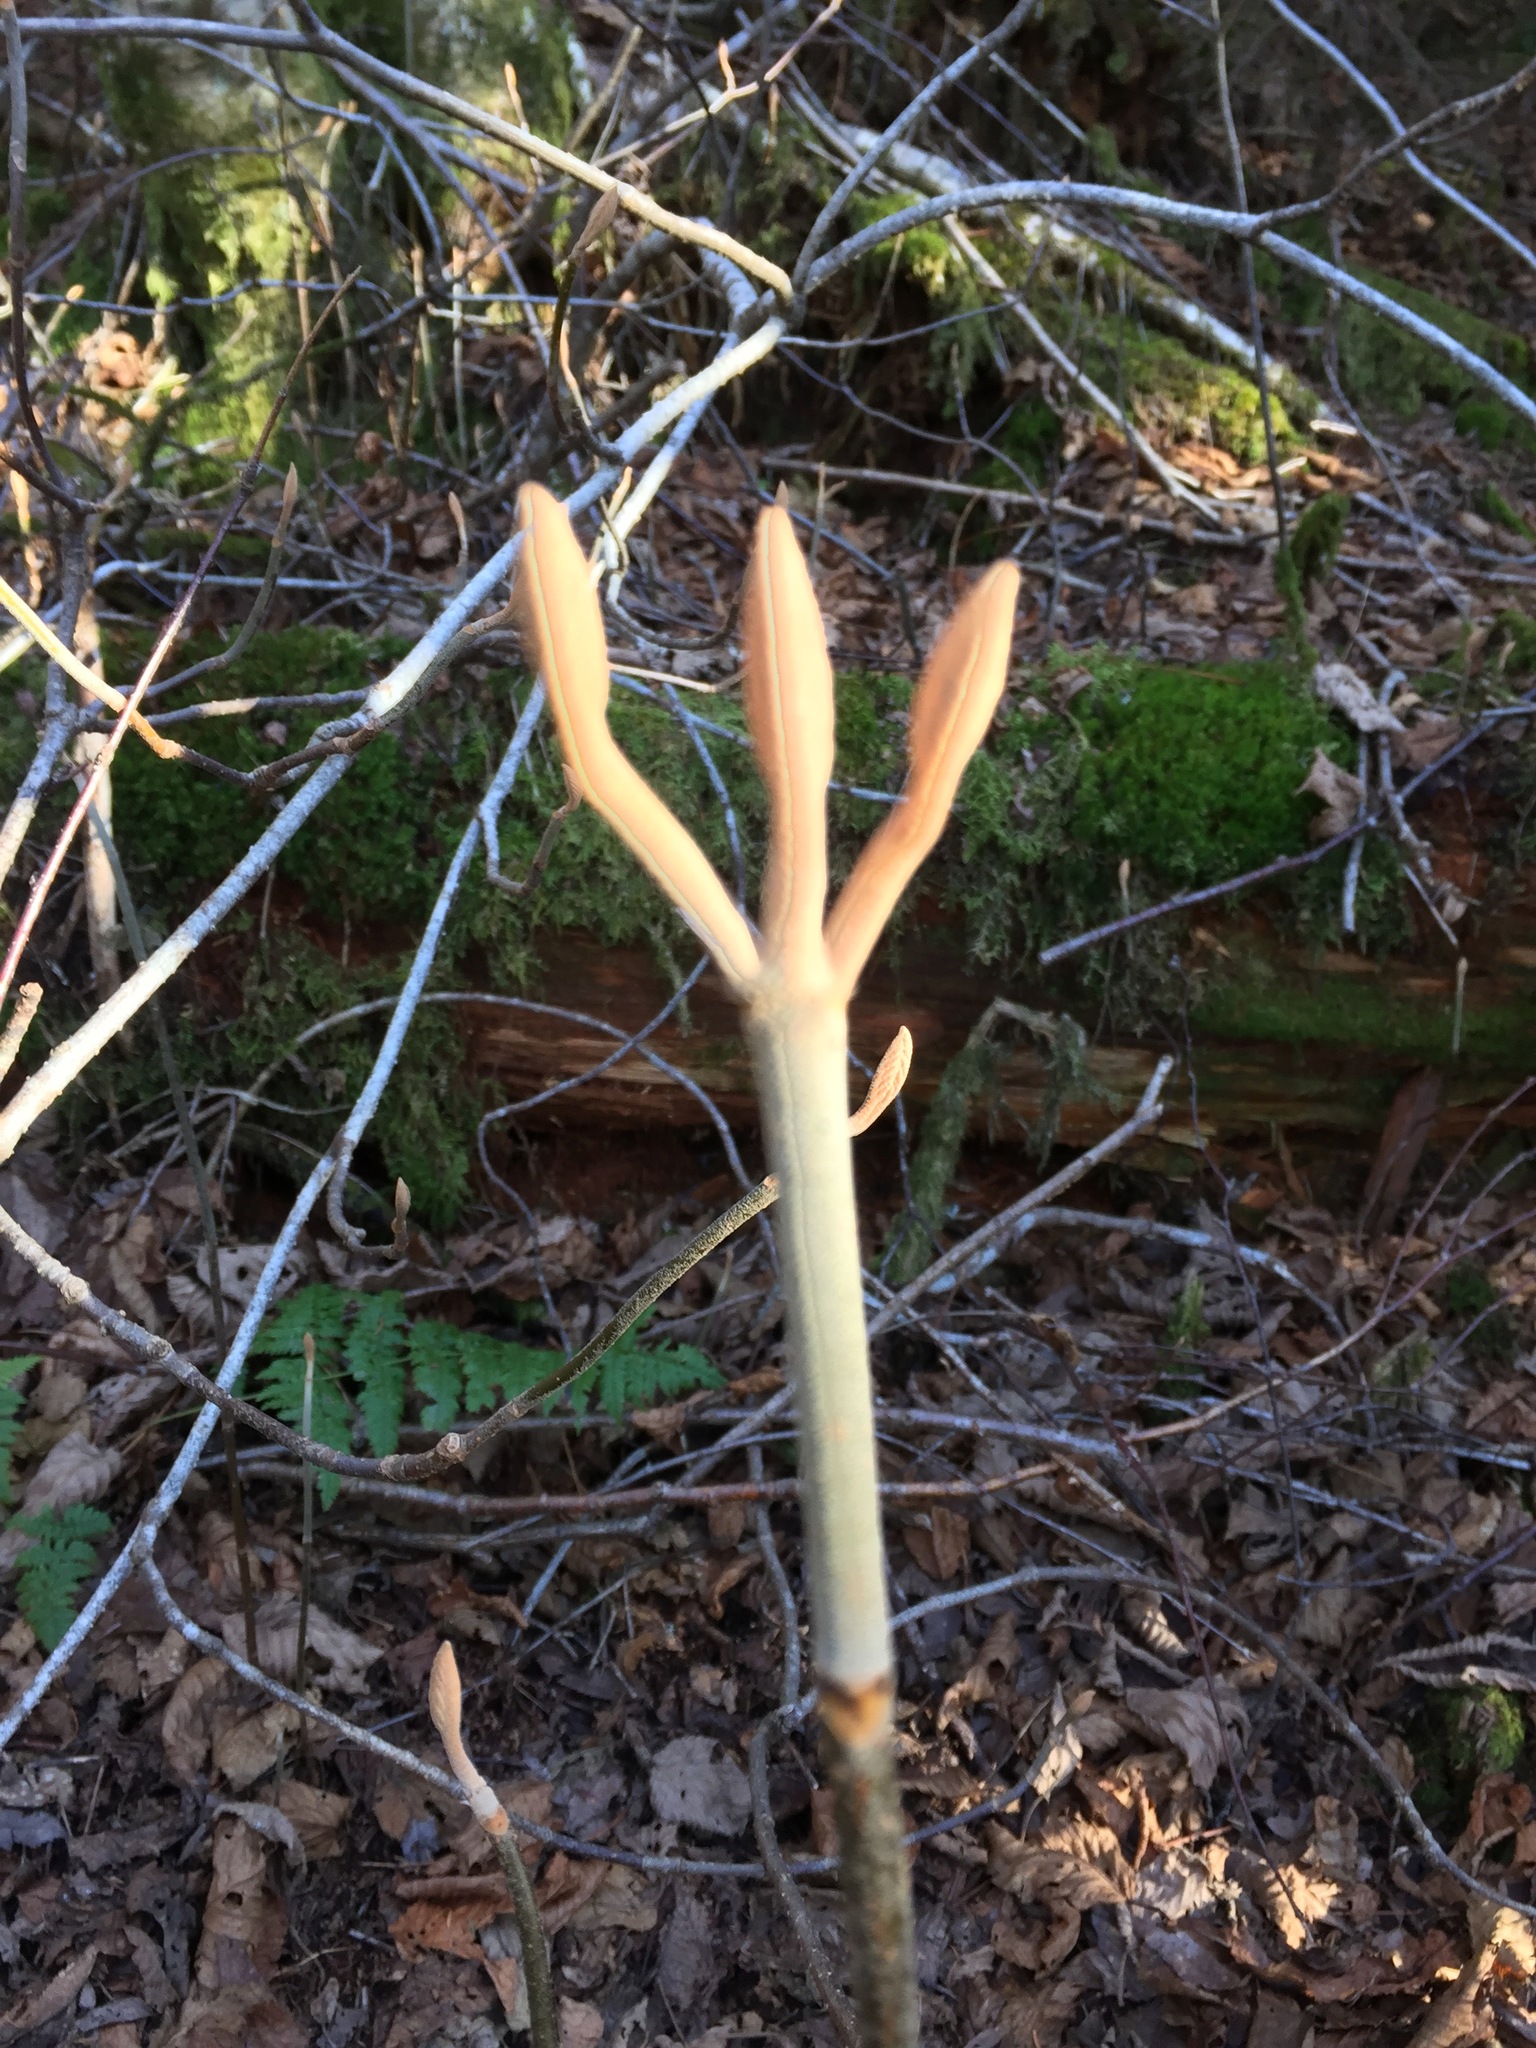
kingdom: Plantae
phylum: Tracheophyta
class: Magnoliopsida
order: Dipsacales
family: Viburnaceae
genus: Viburnum
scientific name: Viburnum lantanoides
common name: Hobblebush
